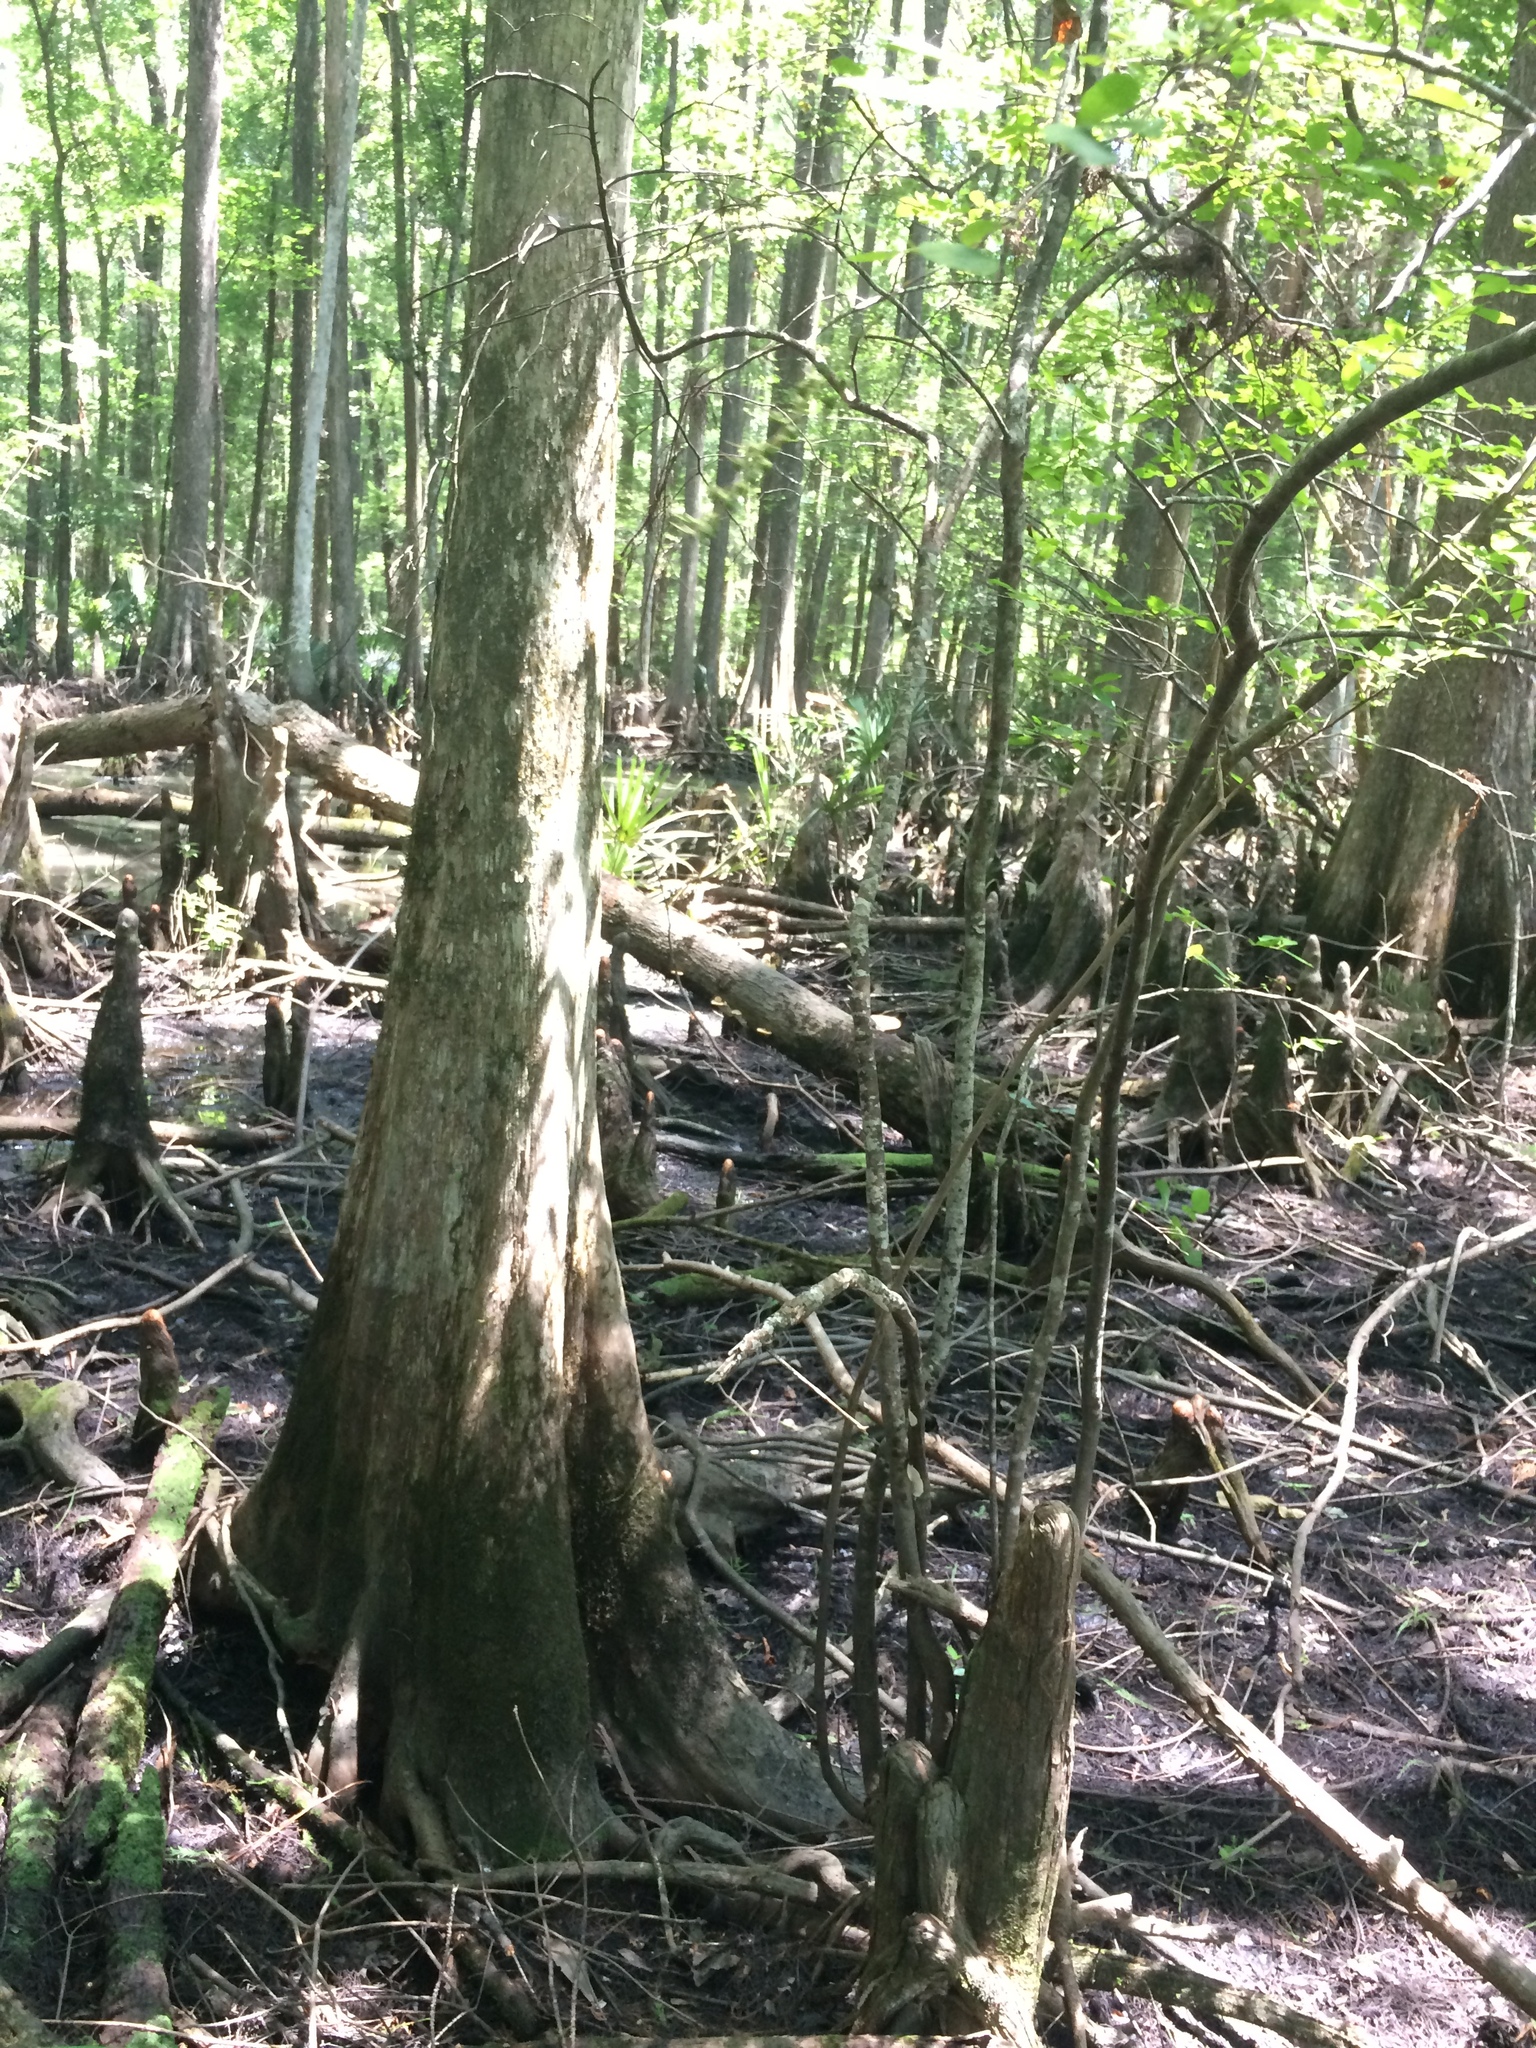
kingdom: Plantae
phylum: Tracheophyta
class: Magnoliopsida
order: Ericales
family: Ericaceae
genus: Eubotrys
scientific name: Eubotrys racemosa
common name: Fetterbush
